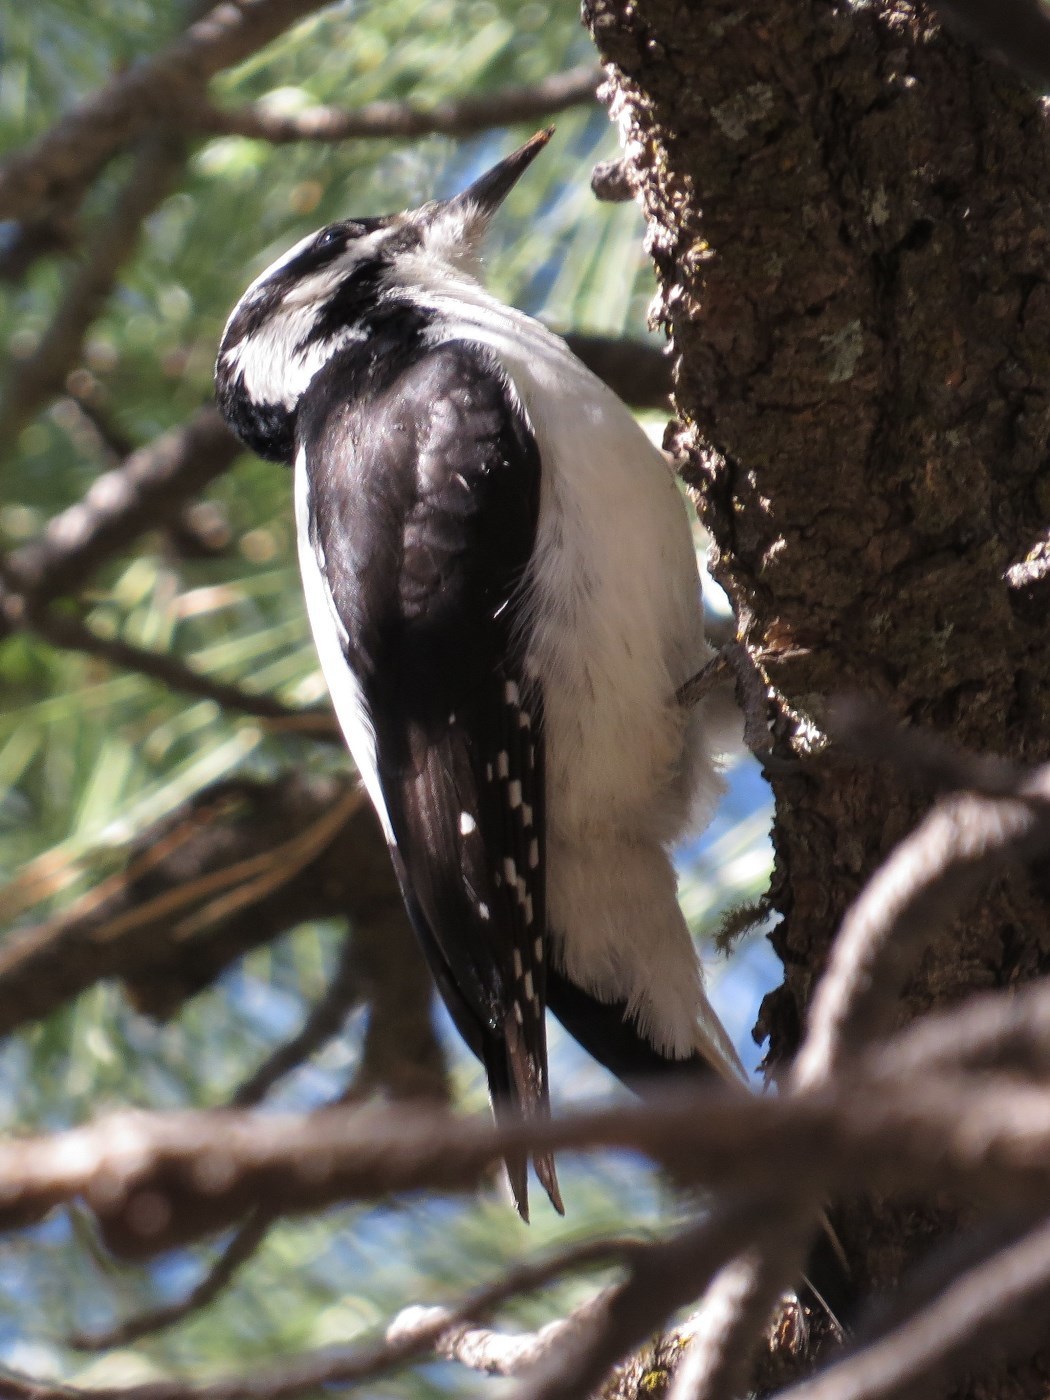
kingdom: Animalia
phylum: Chordata
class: Aves
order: Piciformes
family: Picidae
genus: Leuconotopicus
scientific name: Leuconotopicus villosus
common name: Hairy woodpecker
